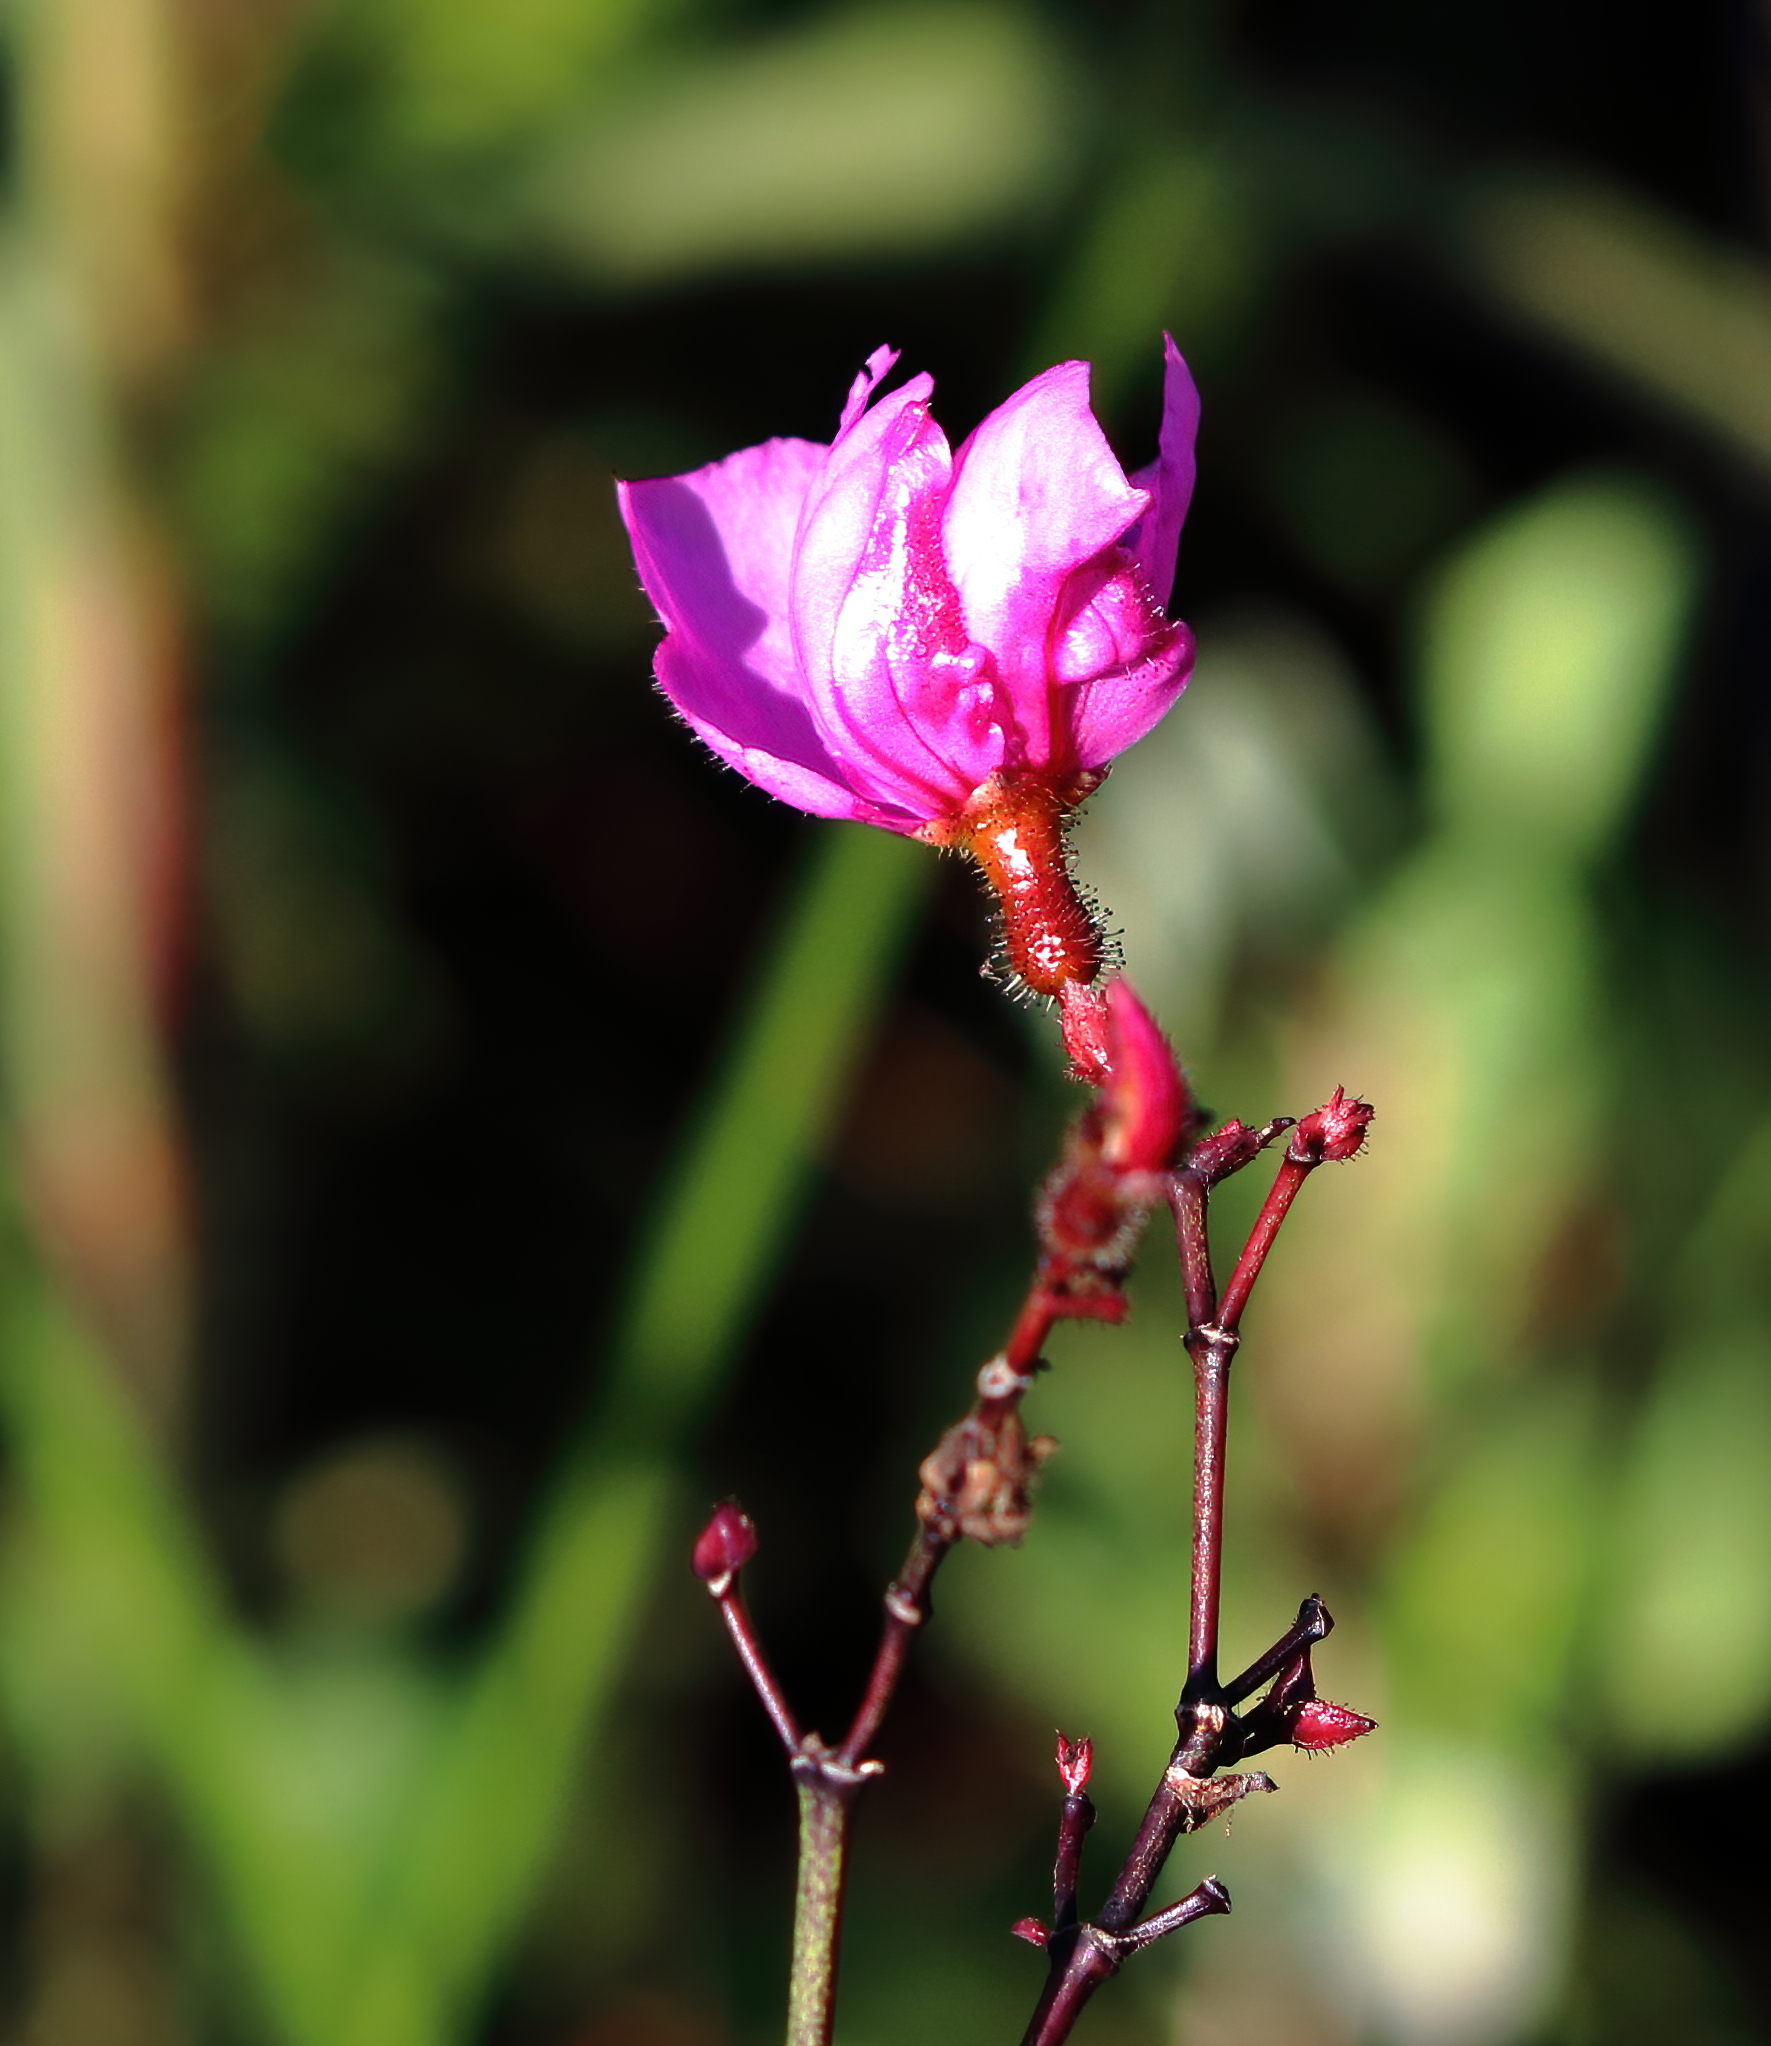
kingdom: Plantae
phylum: Tracheophyta
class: Magnoliopsida
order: Myrtales
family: Melastomataceae
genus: Rhexia
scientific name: Rhexia alifanus
